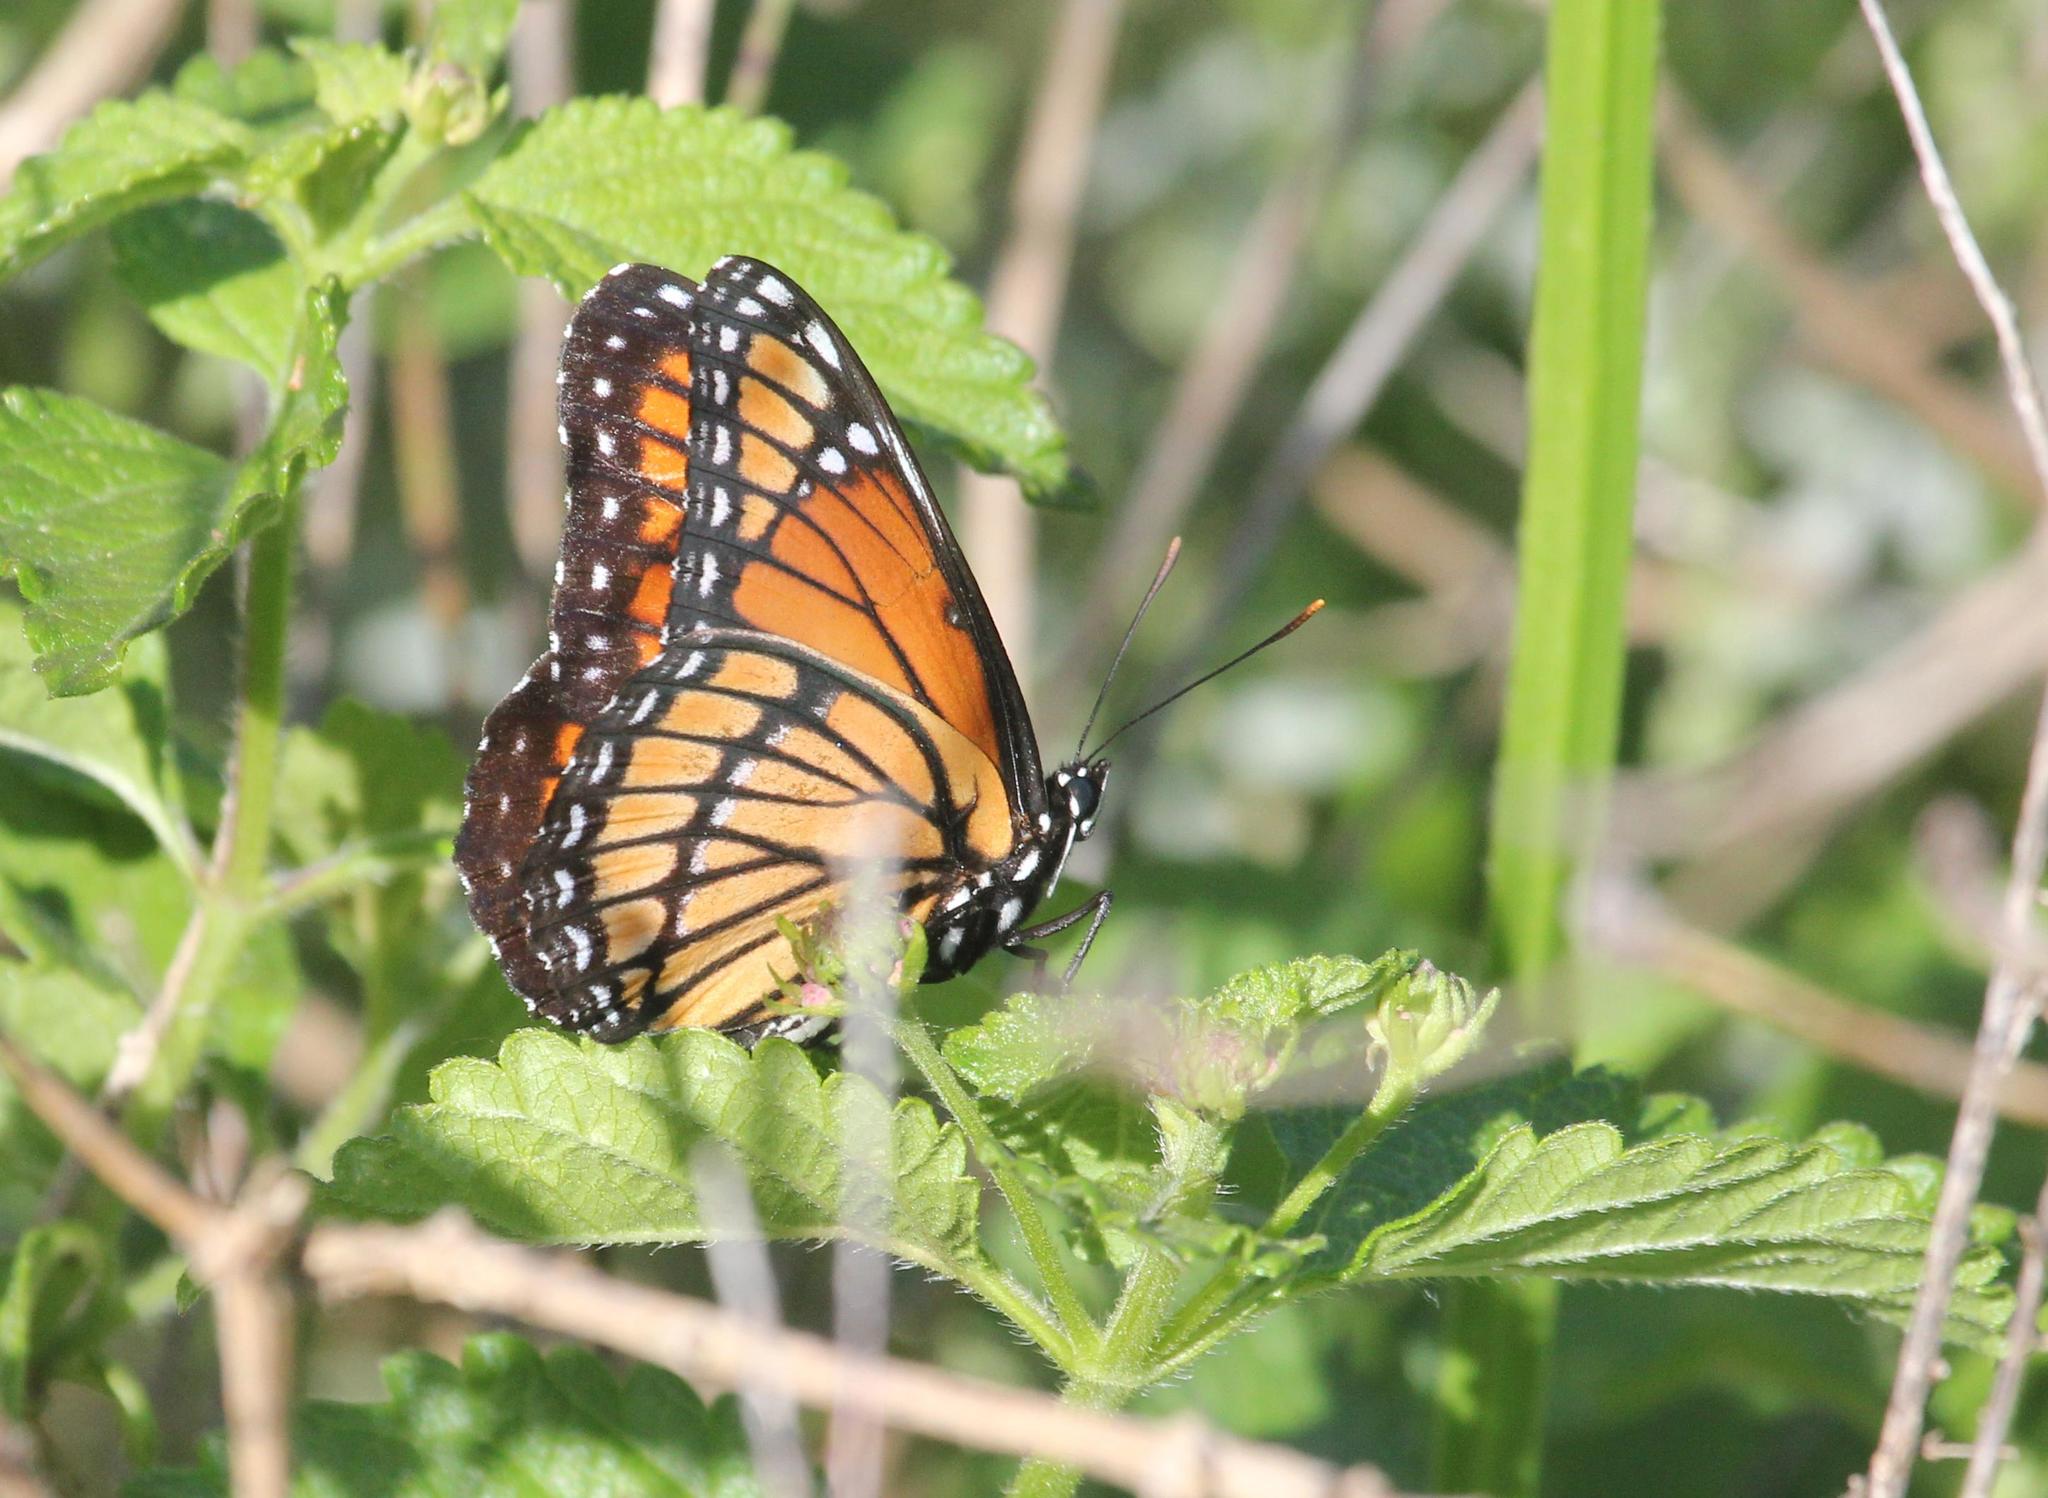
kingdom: Animalia
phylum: Arthropoda
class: Insecta
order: Lepidoptera
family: Nymphalidae
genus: Limenitis
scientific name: Limenitis archippus
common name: Viceroy
